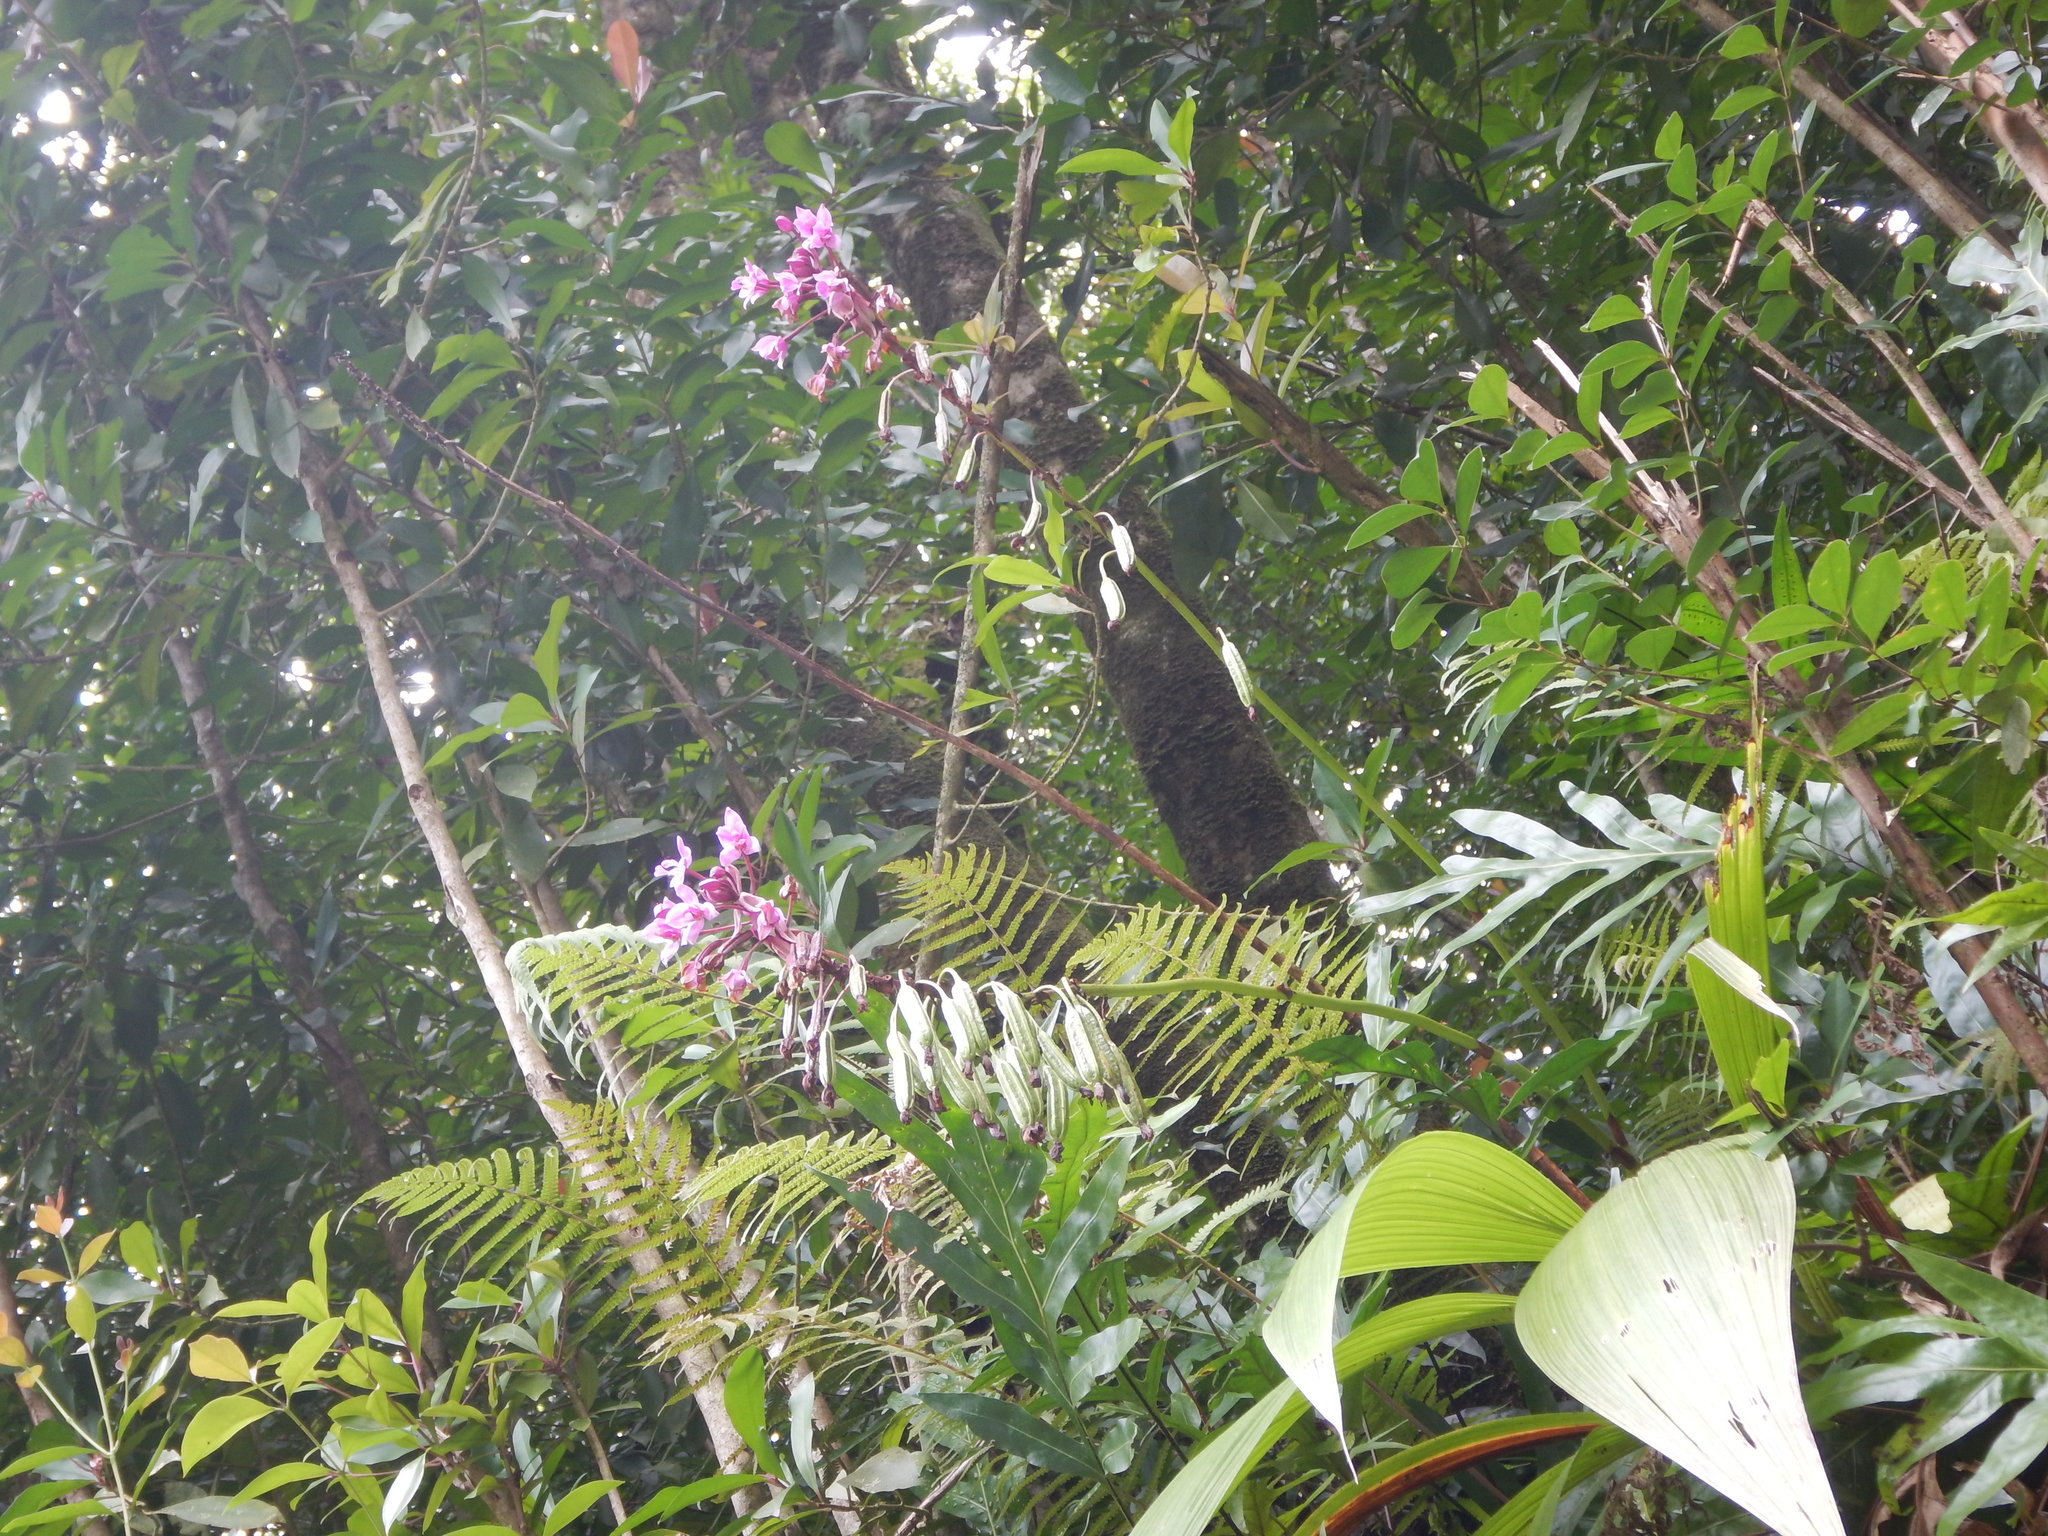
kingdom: Plantae
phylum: Tracheophyta
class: Liliopsida
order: Asparagales
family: Orchidaceae
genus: Spathoglottis
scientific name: Spathoglottis plicata
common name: Philippine ground orchid
